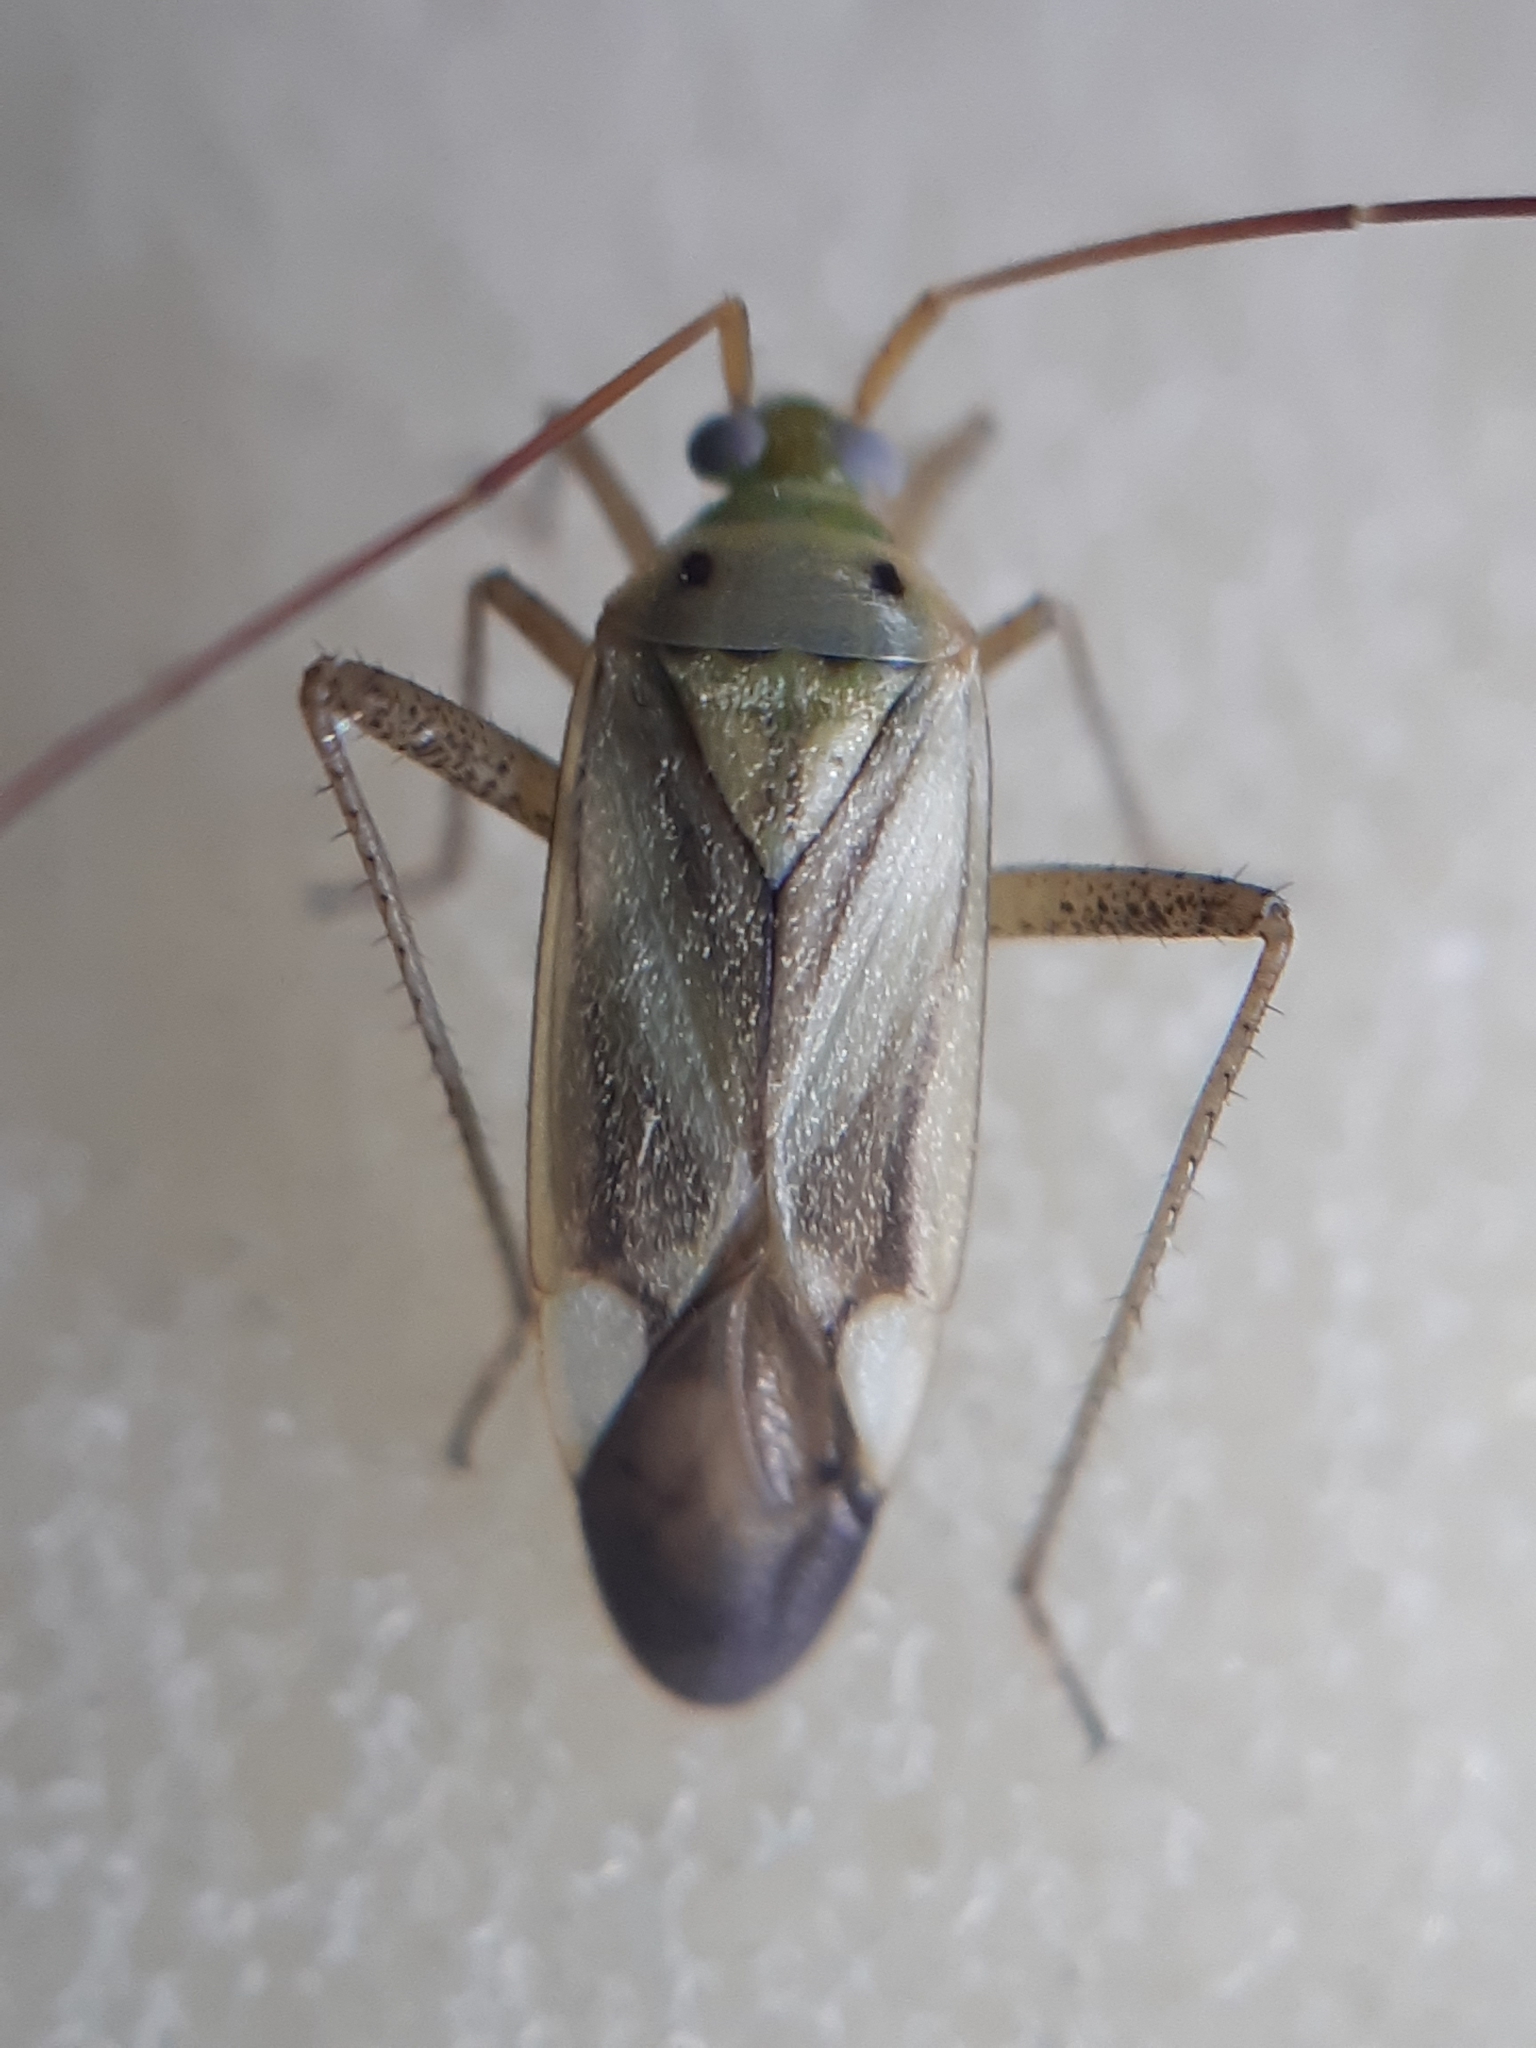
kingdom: Animalia
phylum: Arthropoda
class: Insecta
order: Hemiptera
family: Miridae
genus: Adelphocoris
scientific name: Adelphocoris lineolatus
